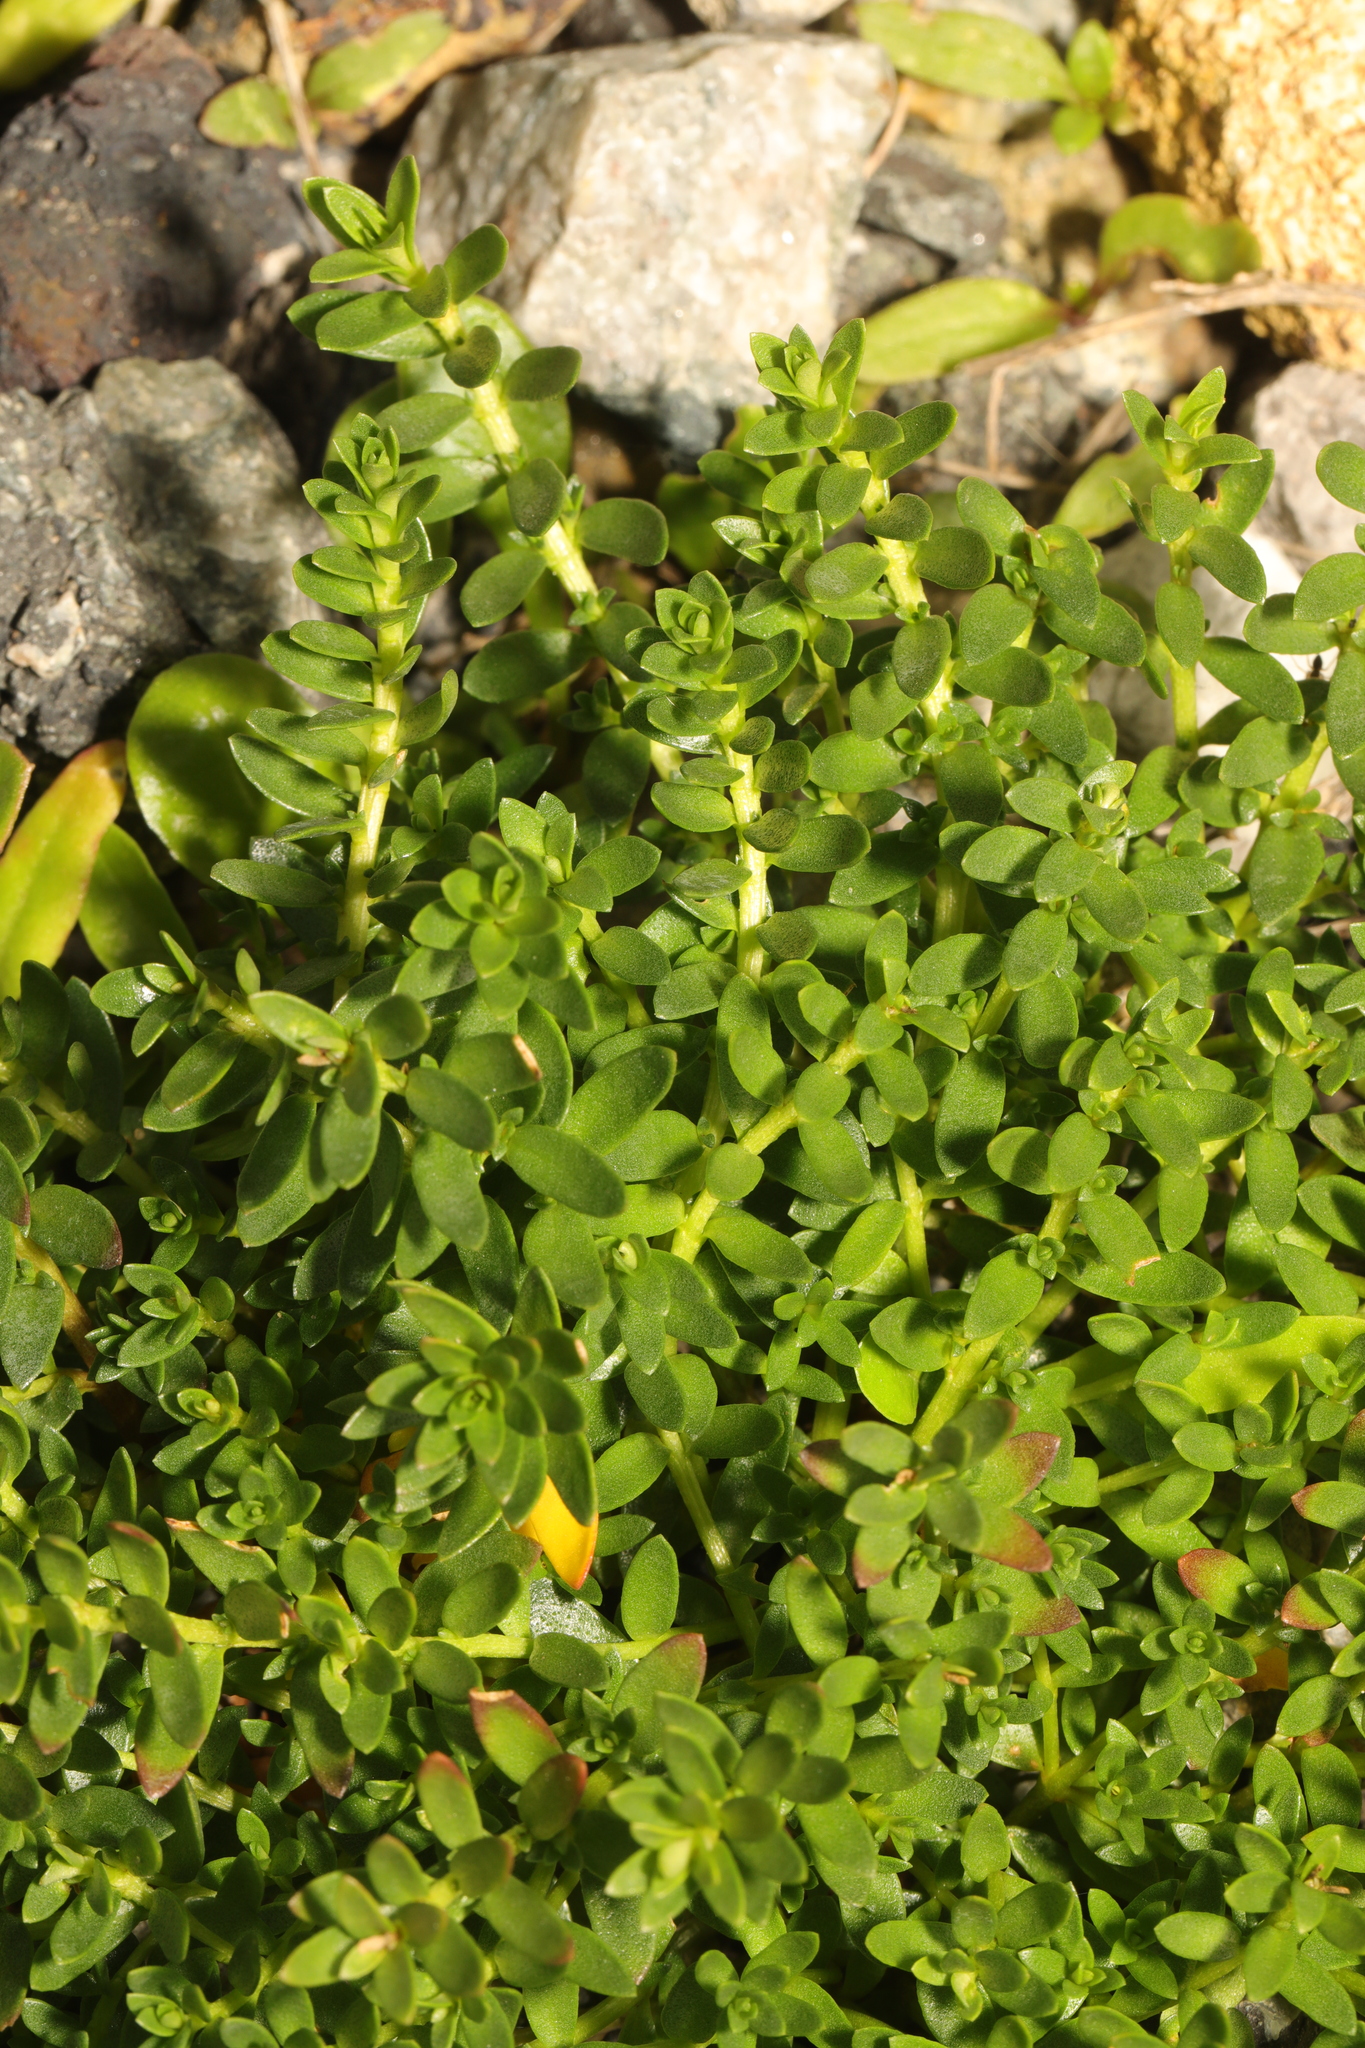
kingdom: Plantae
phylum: Tracheophyta
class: Magnoliopsida
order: Ericales
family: Primulaceae
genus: Lysimachia
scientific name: Lysimachia maritima
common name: Sea milkwort
